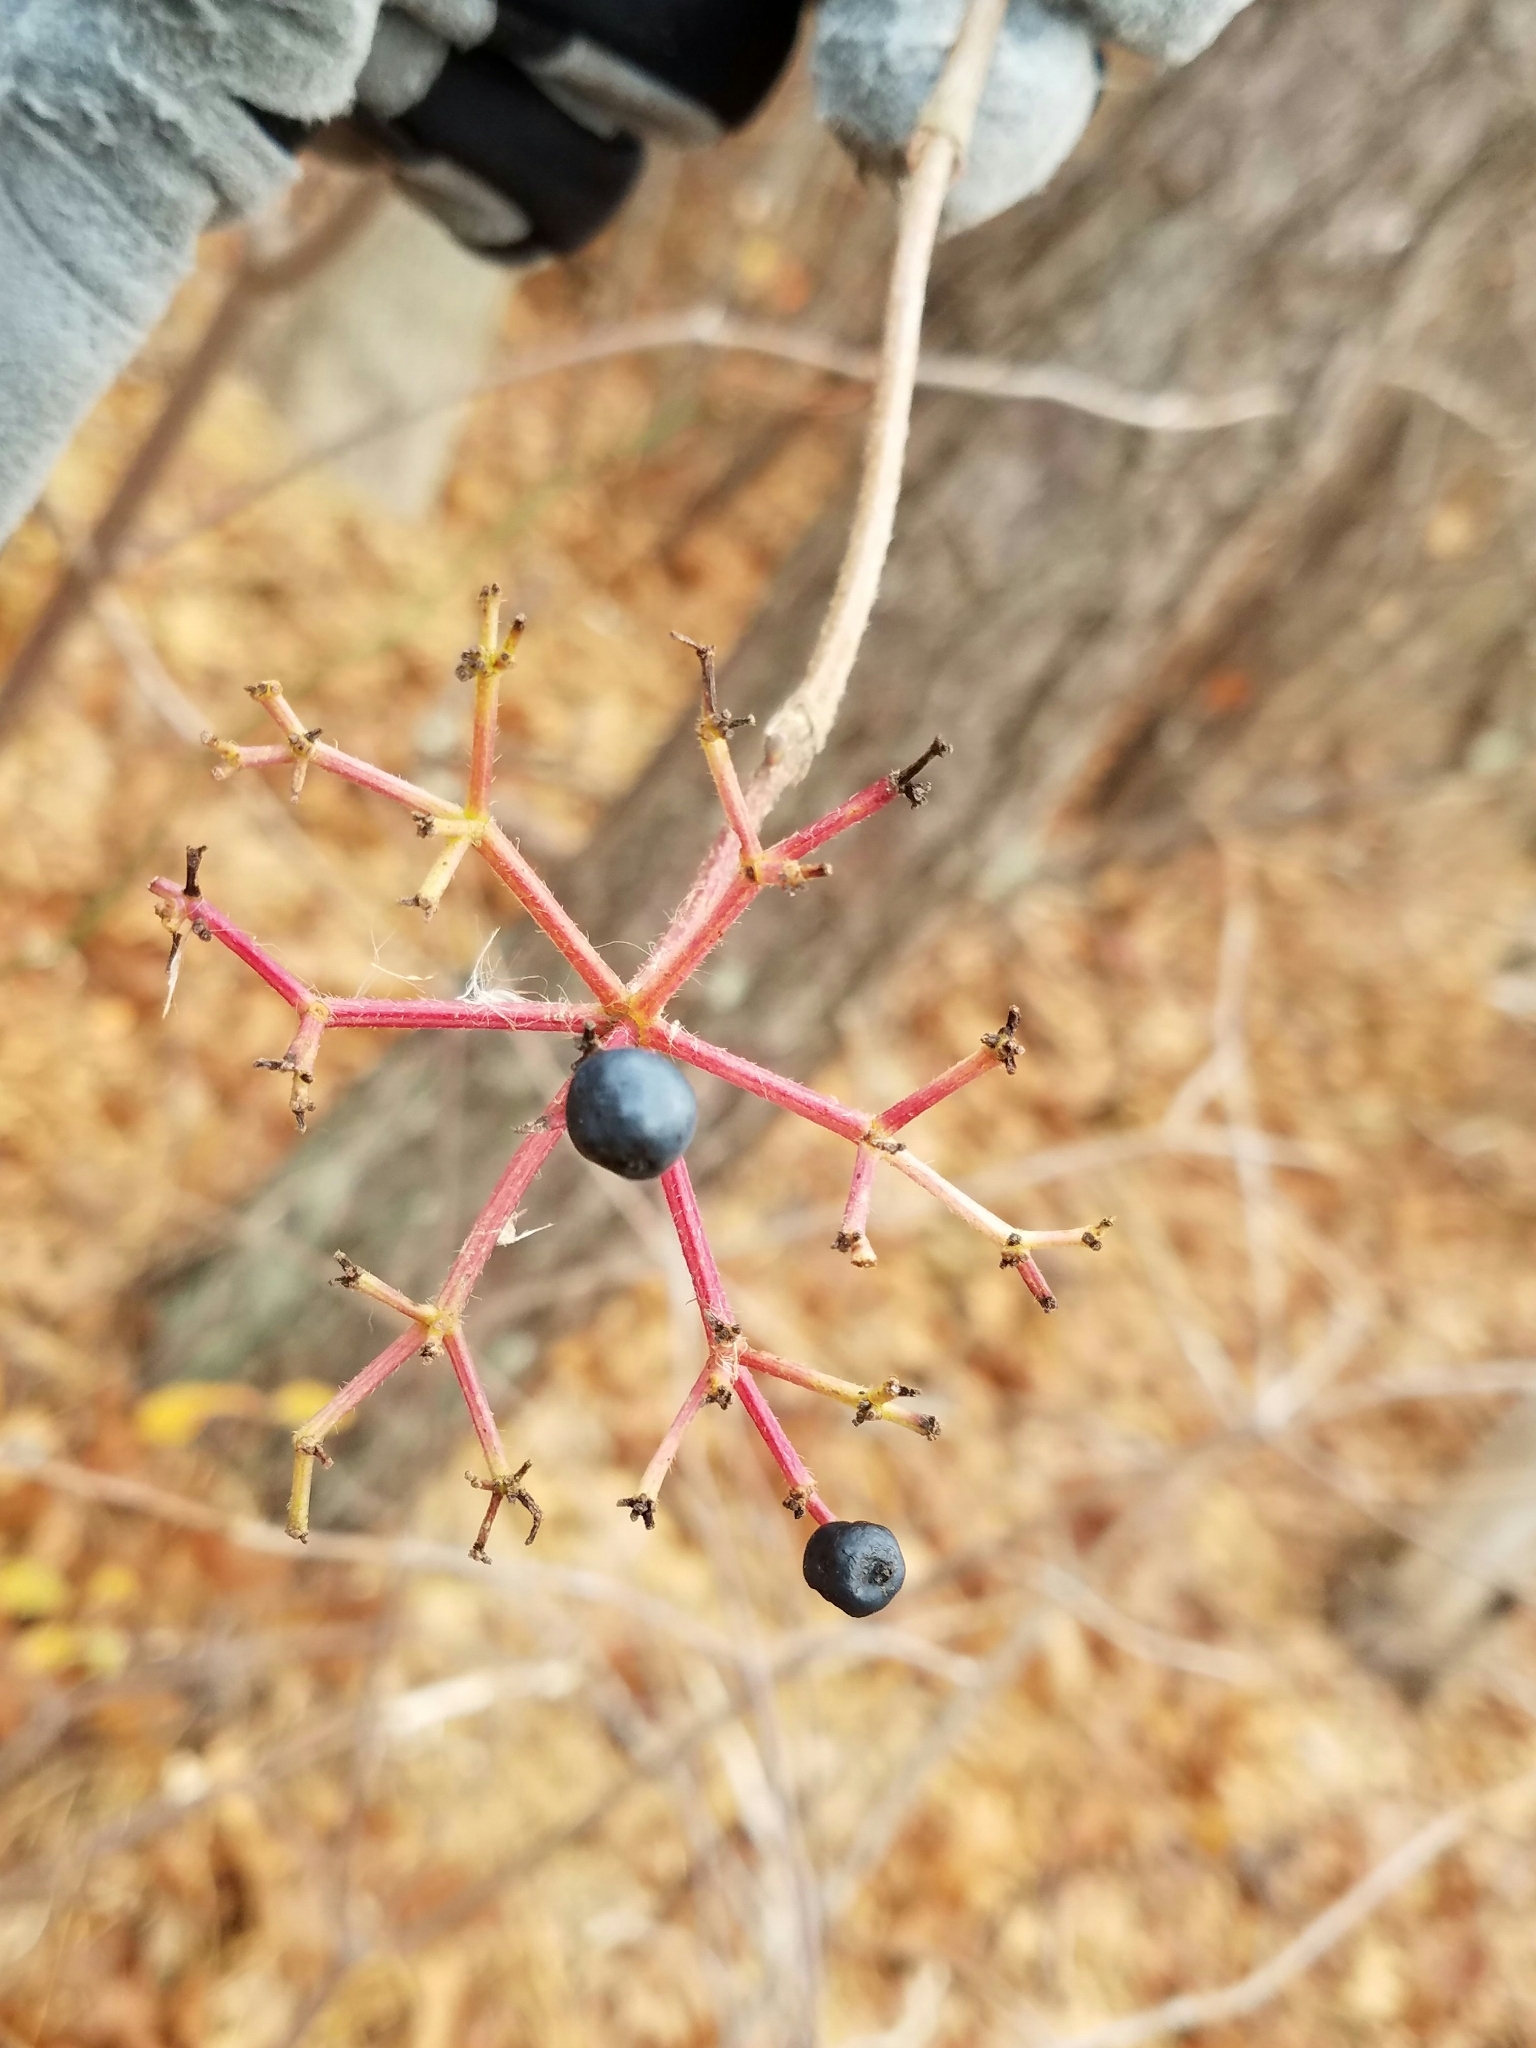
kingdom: Plantae
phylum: Tracheophyta
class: Magnoliopsida
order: Dipsacales
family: Viburnaceae
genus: Viburnum
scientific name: Viburnum dentatum
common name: Arrow-wood
